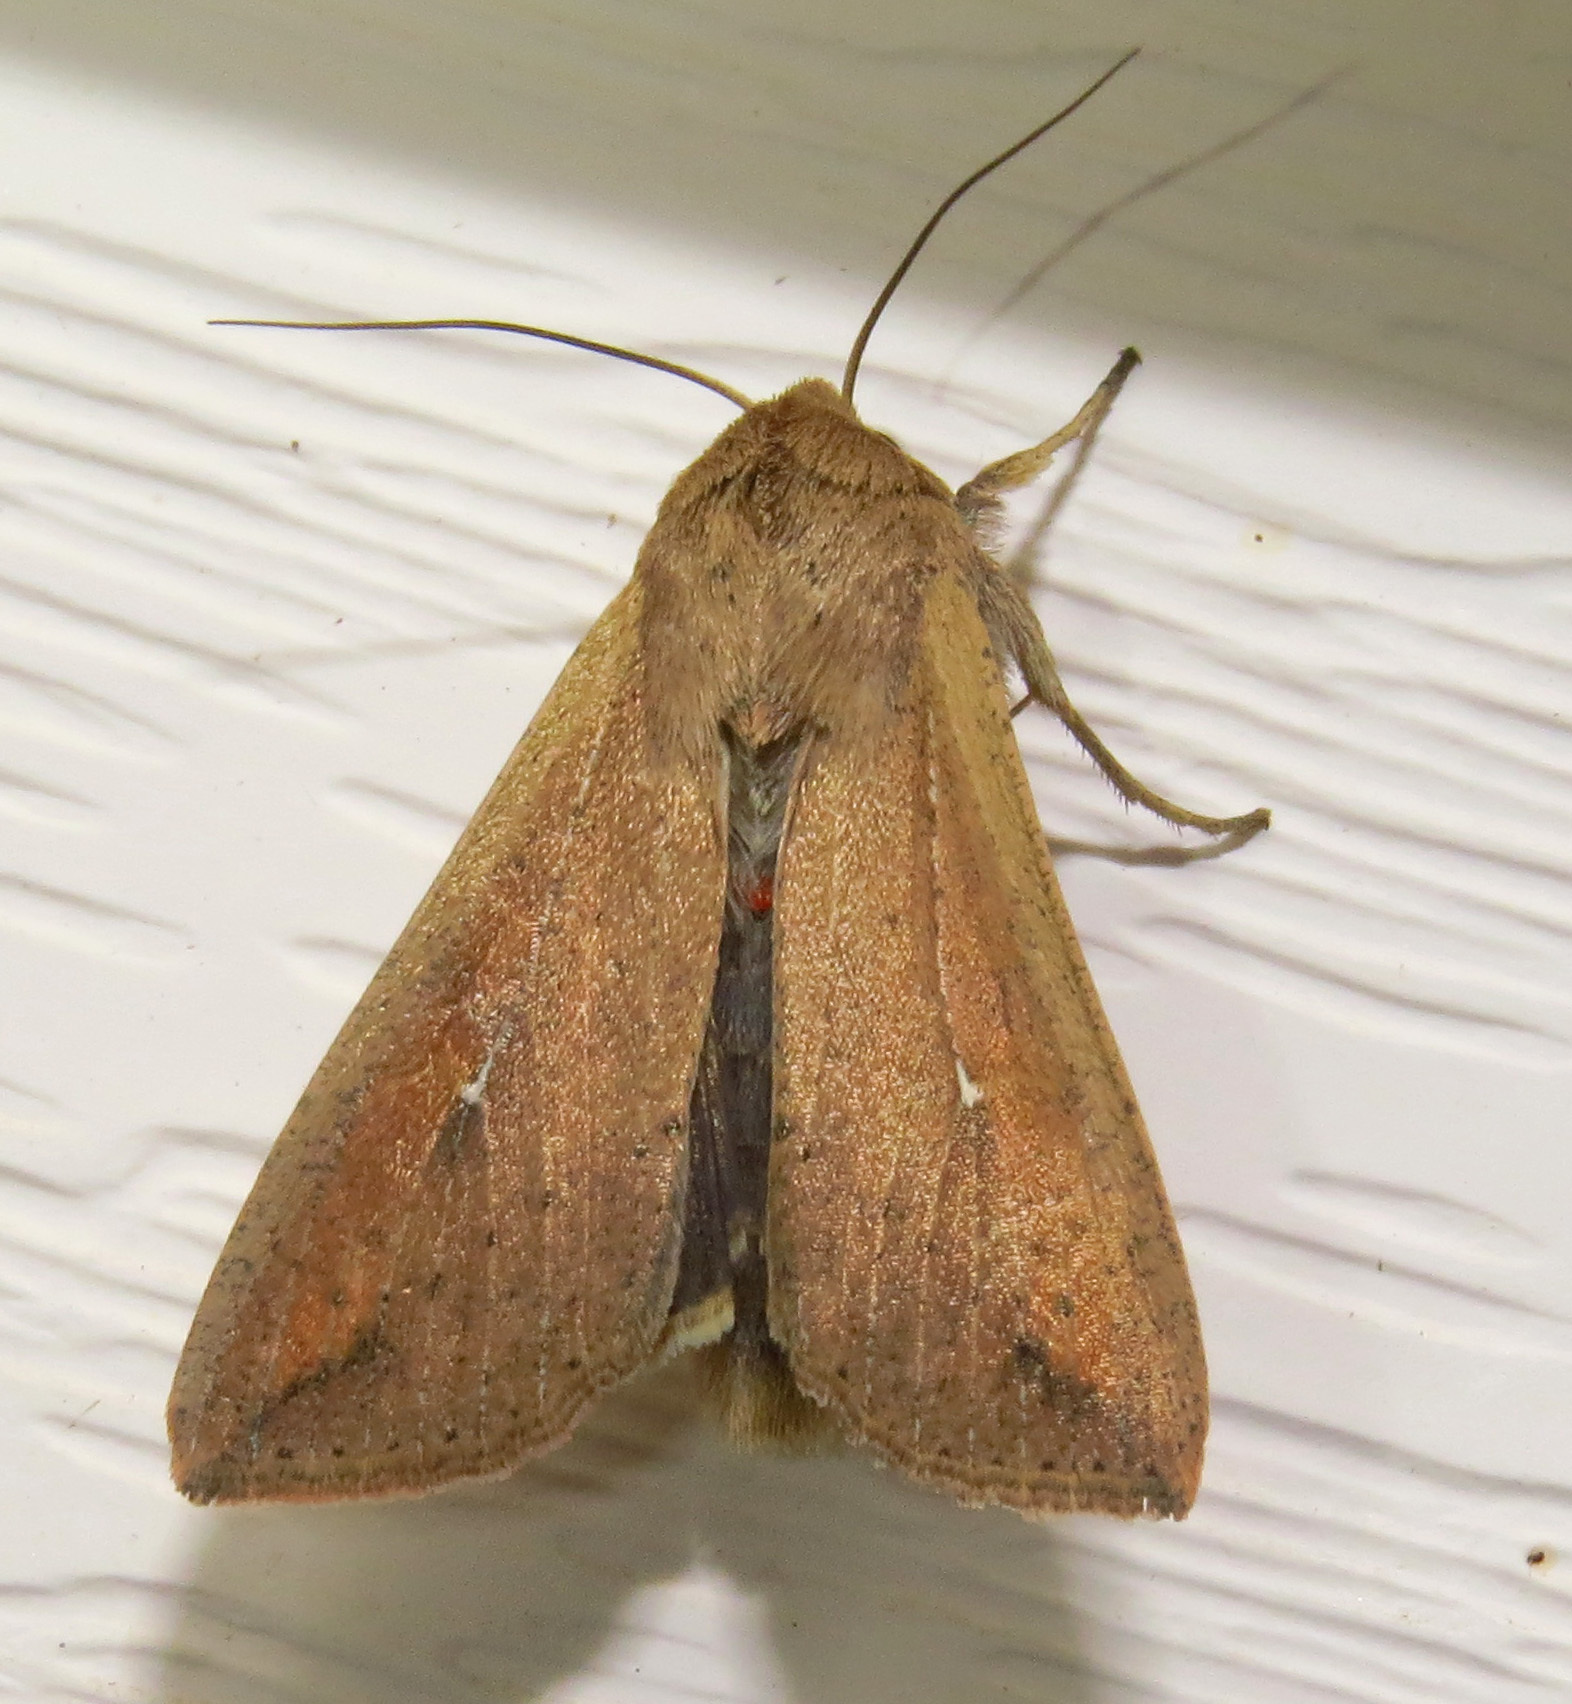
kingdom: Animalia
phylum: Arthropoda
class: Insecta
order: Lepidoptera
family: Noctuidae
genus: Mythimna
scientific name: Mythimna unipuncta
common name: White-speck
